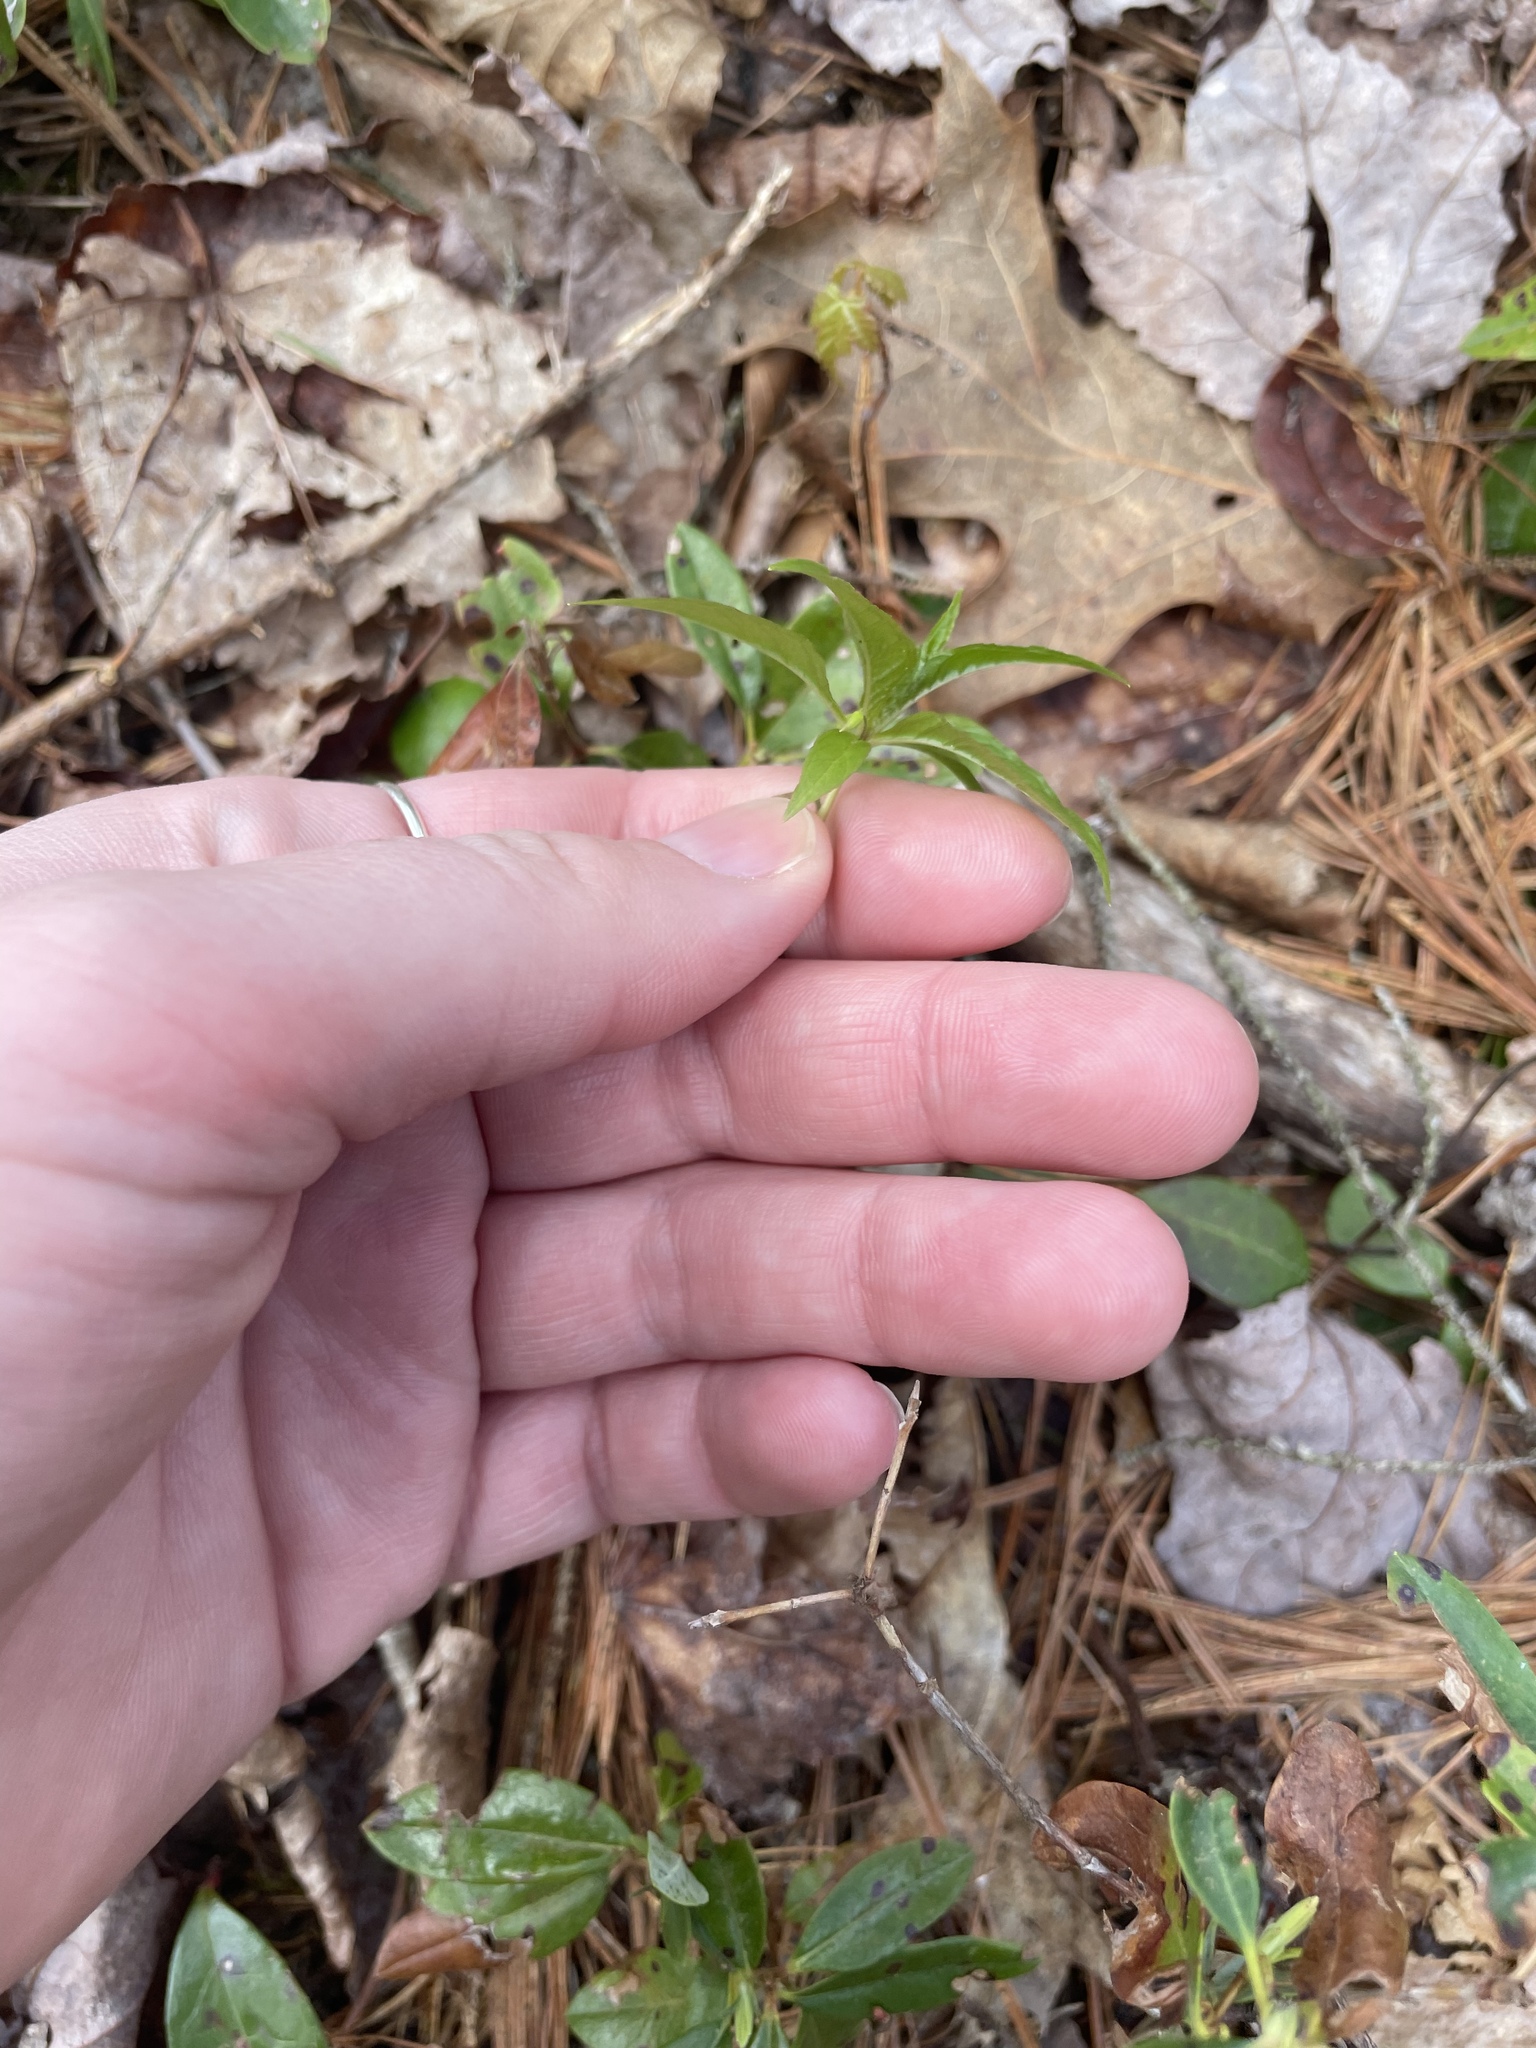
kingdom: Plantae
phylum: Tracheophyta
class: Magnoliopsida
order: Ericales
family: Primulaceae
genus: Lysimachia
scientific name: Lysimachia borealis
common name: American starflower
